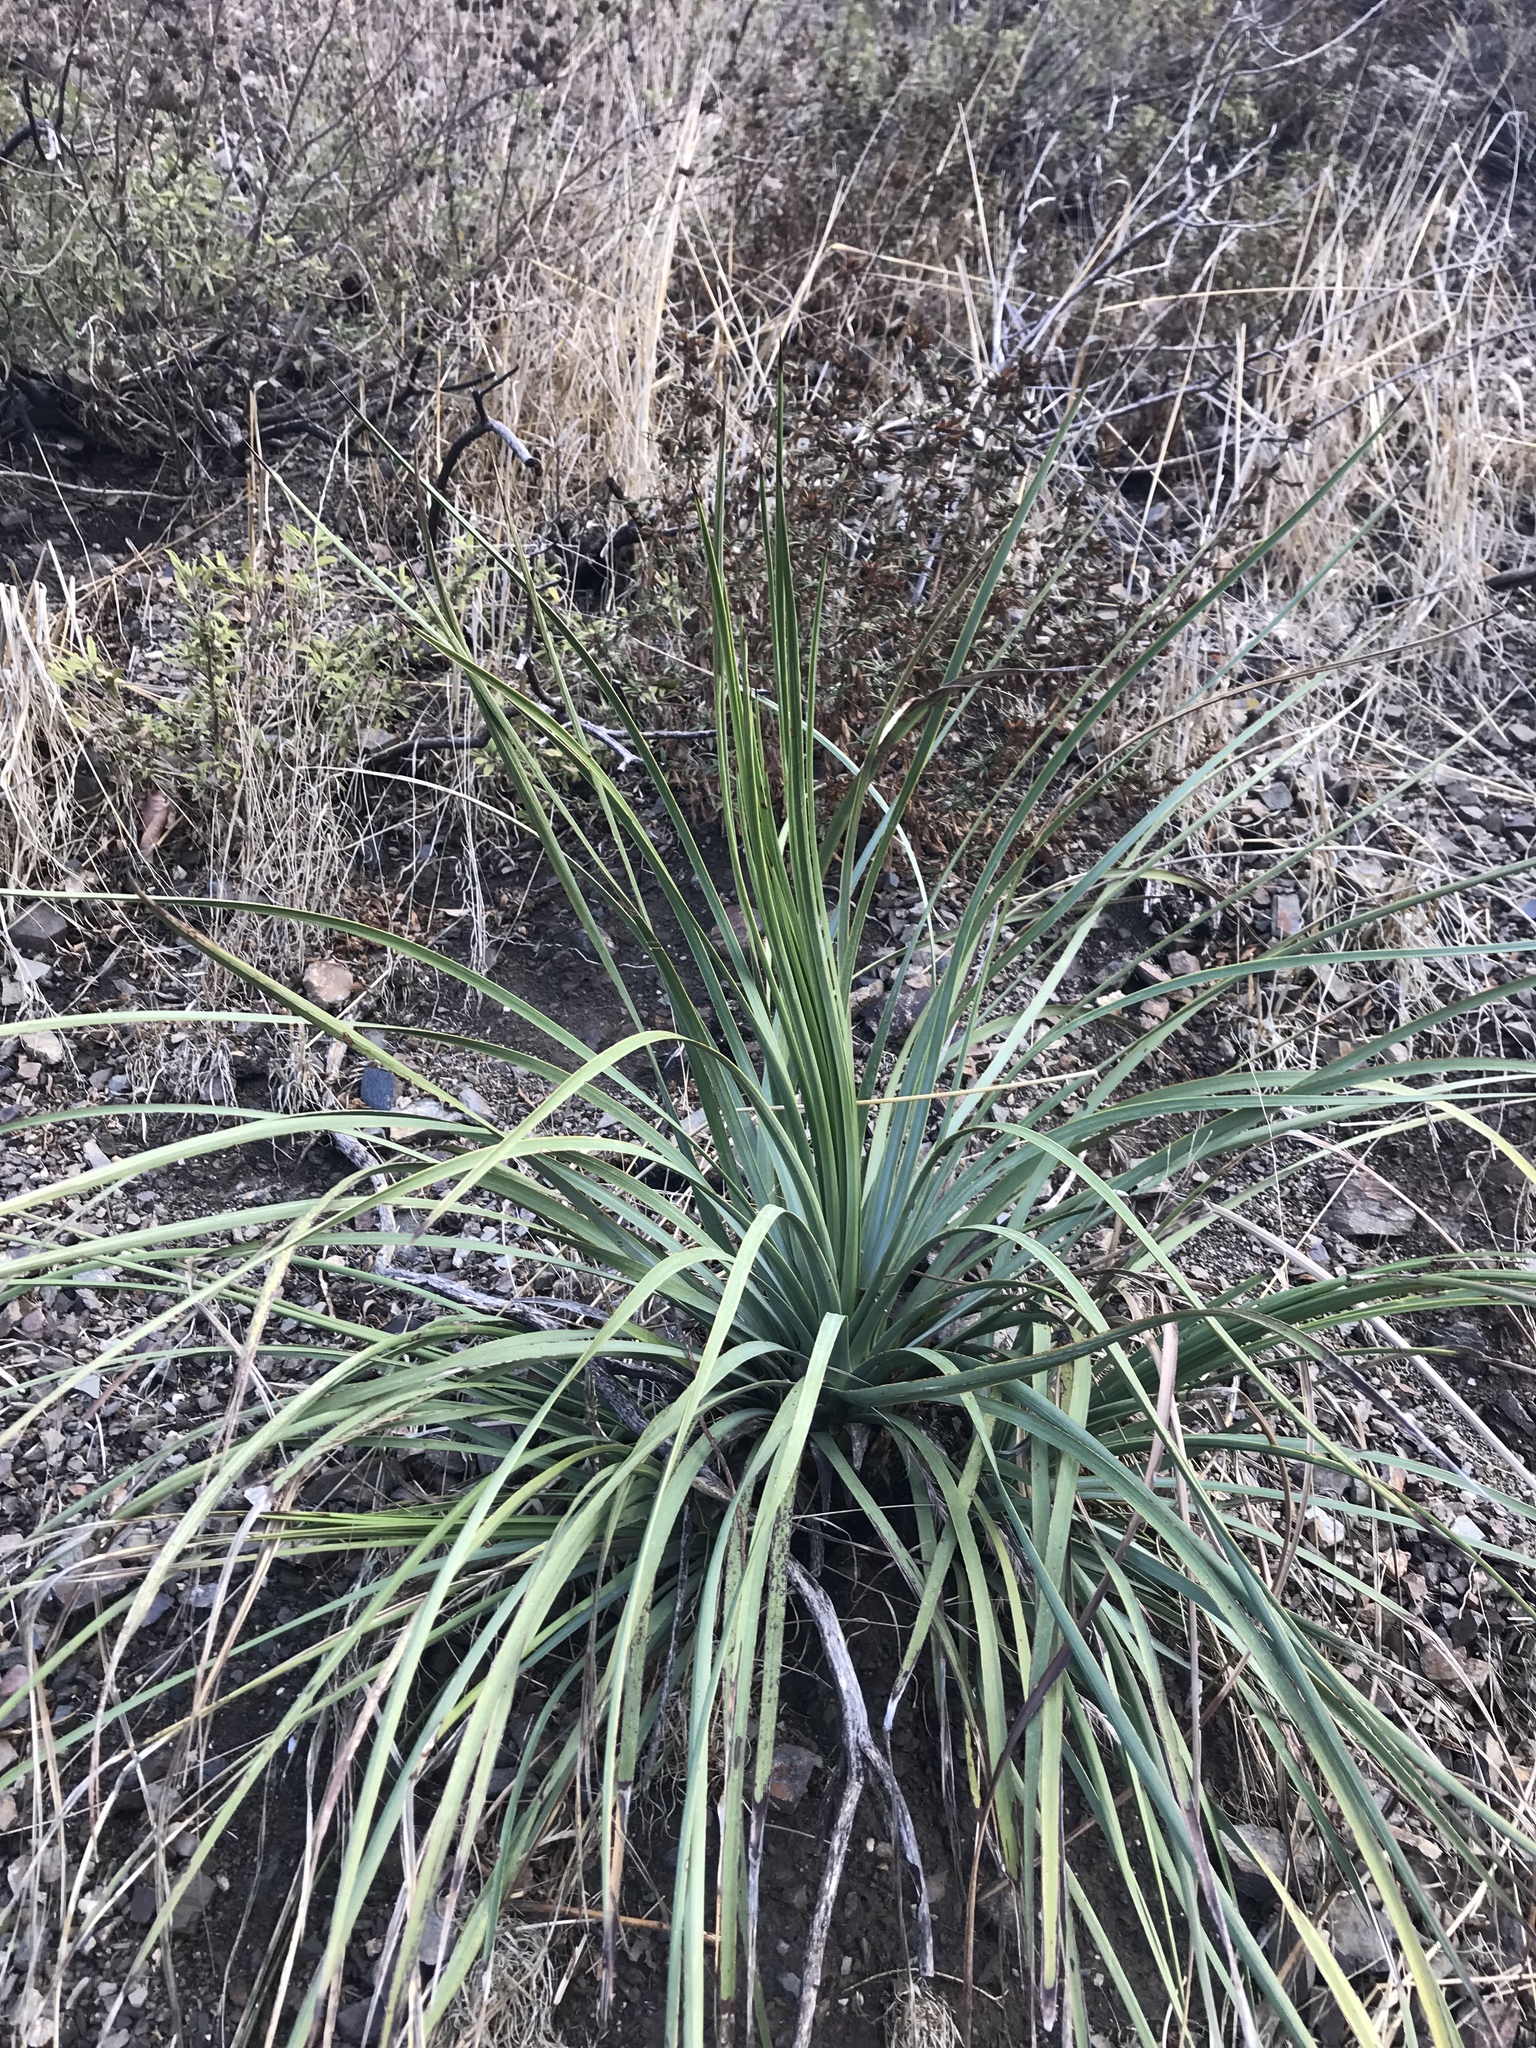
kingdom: Plantae
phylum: Tracheophyta
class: Liliopsida
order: Asparagales
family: Asparagaceae
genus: Hesperoyucca
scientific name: Hesperoyucca whipplei
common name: Our lord's-candle
